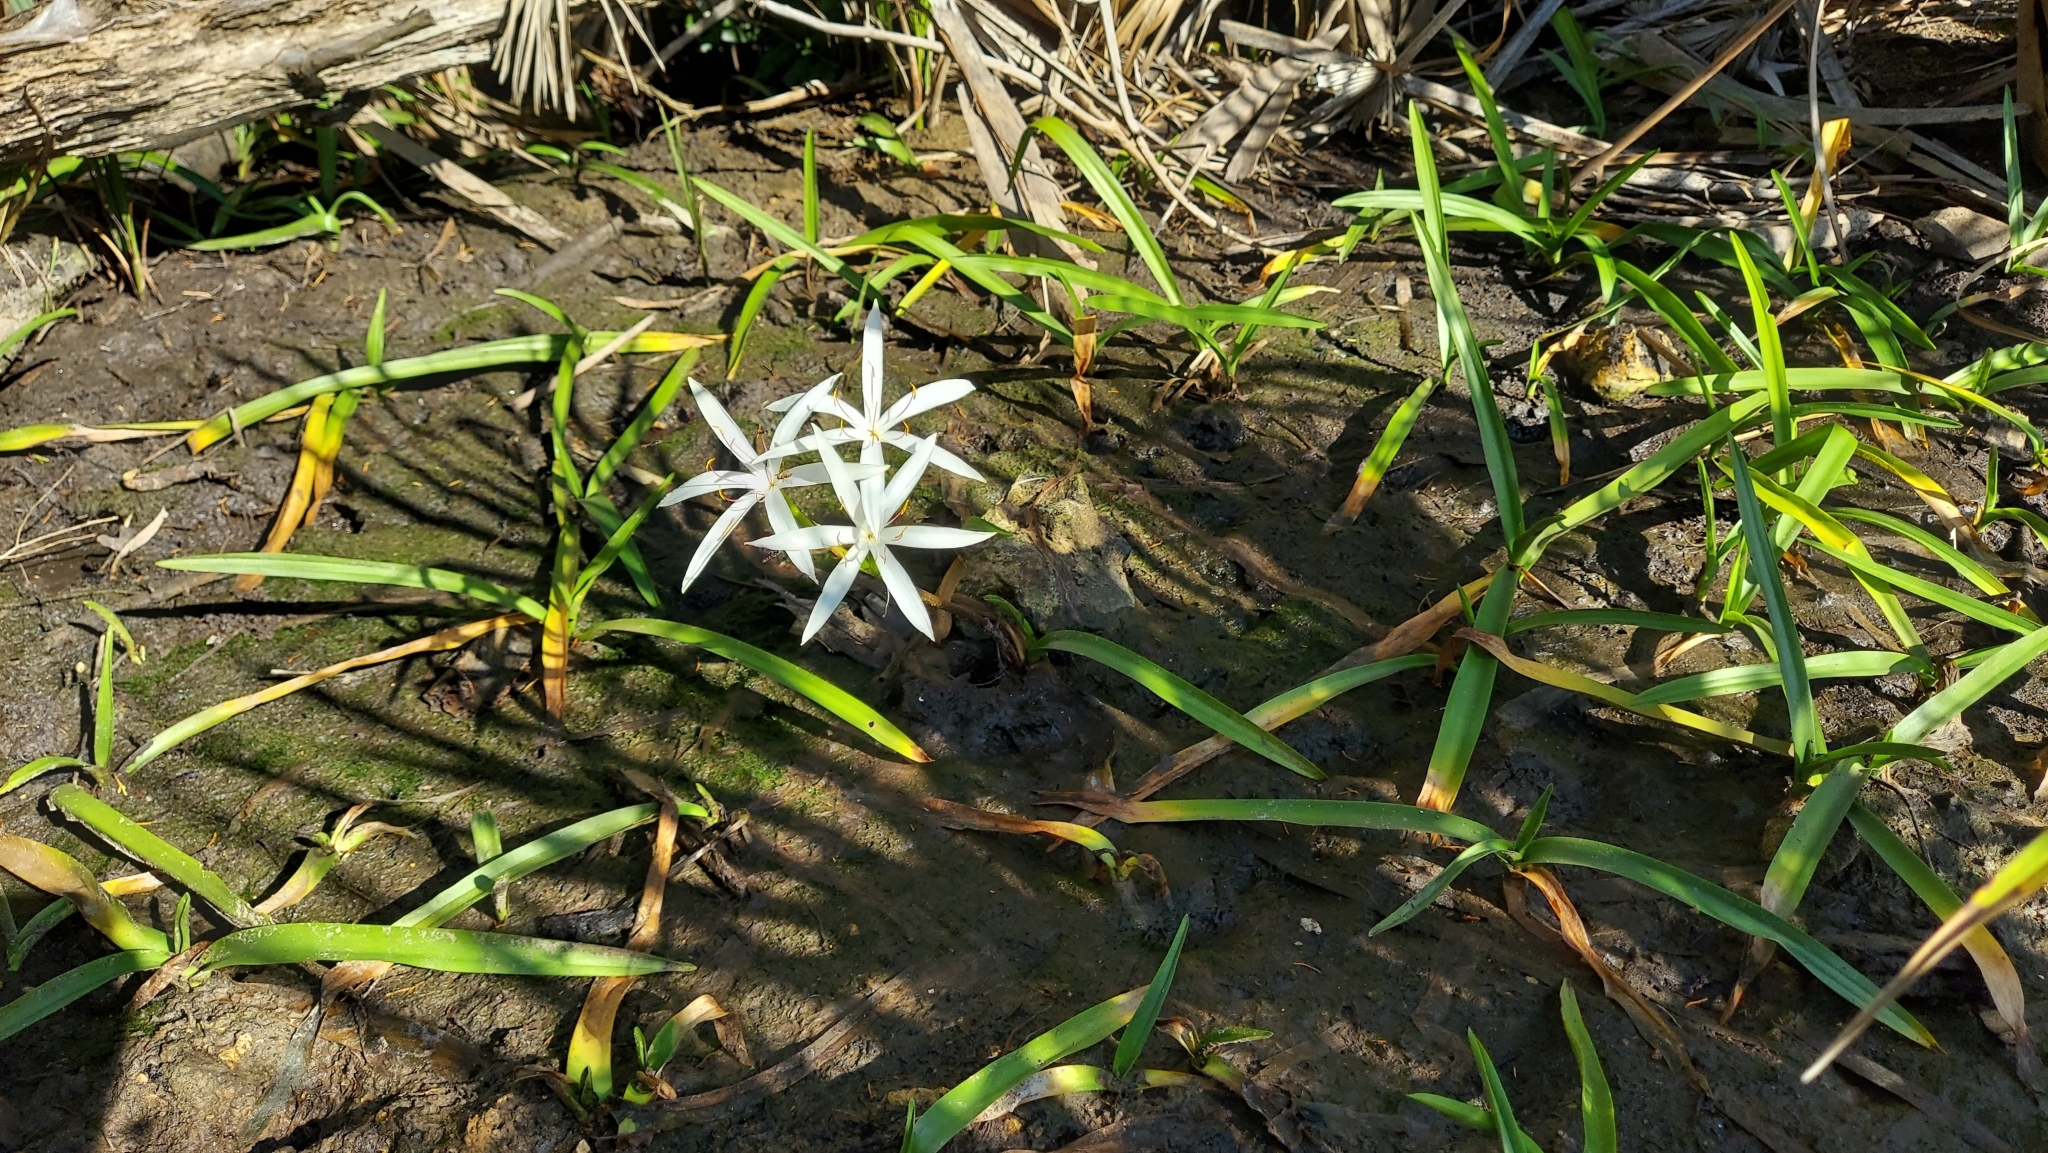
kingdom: Plantae
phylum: Tracheophyta
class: Liliopsida
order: Asparagales
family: Amaryllidaceae
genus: Crinum
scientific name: Crinum americanum
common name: Florida swamp-lily
